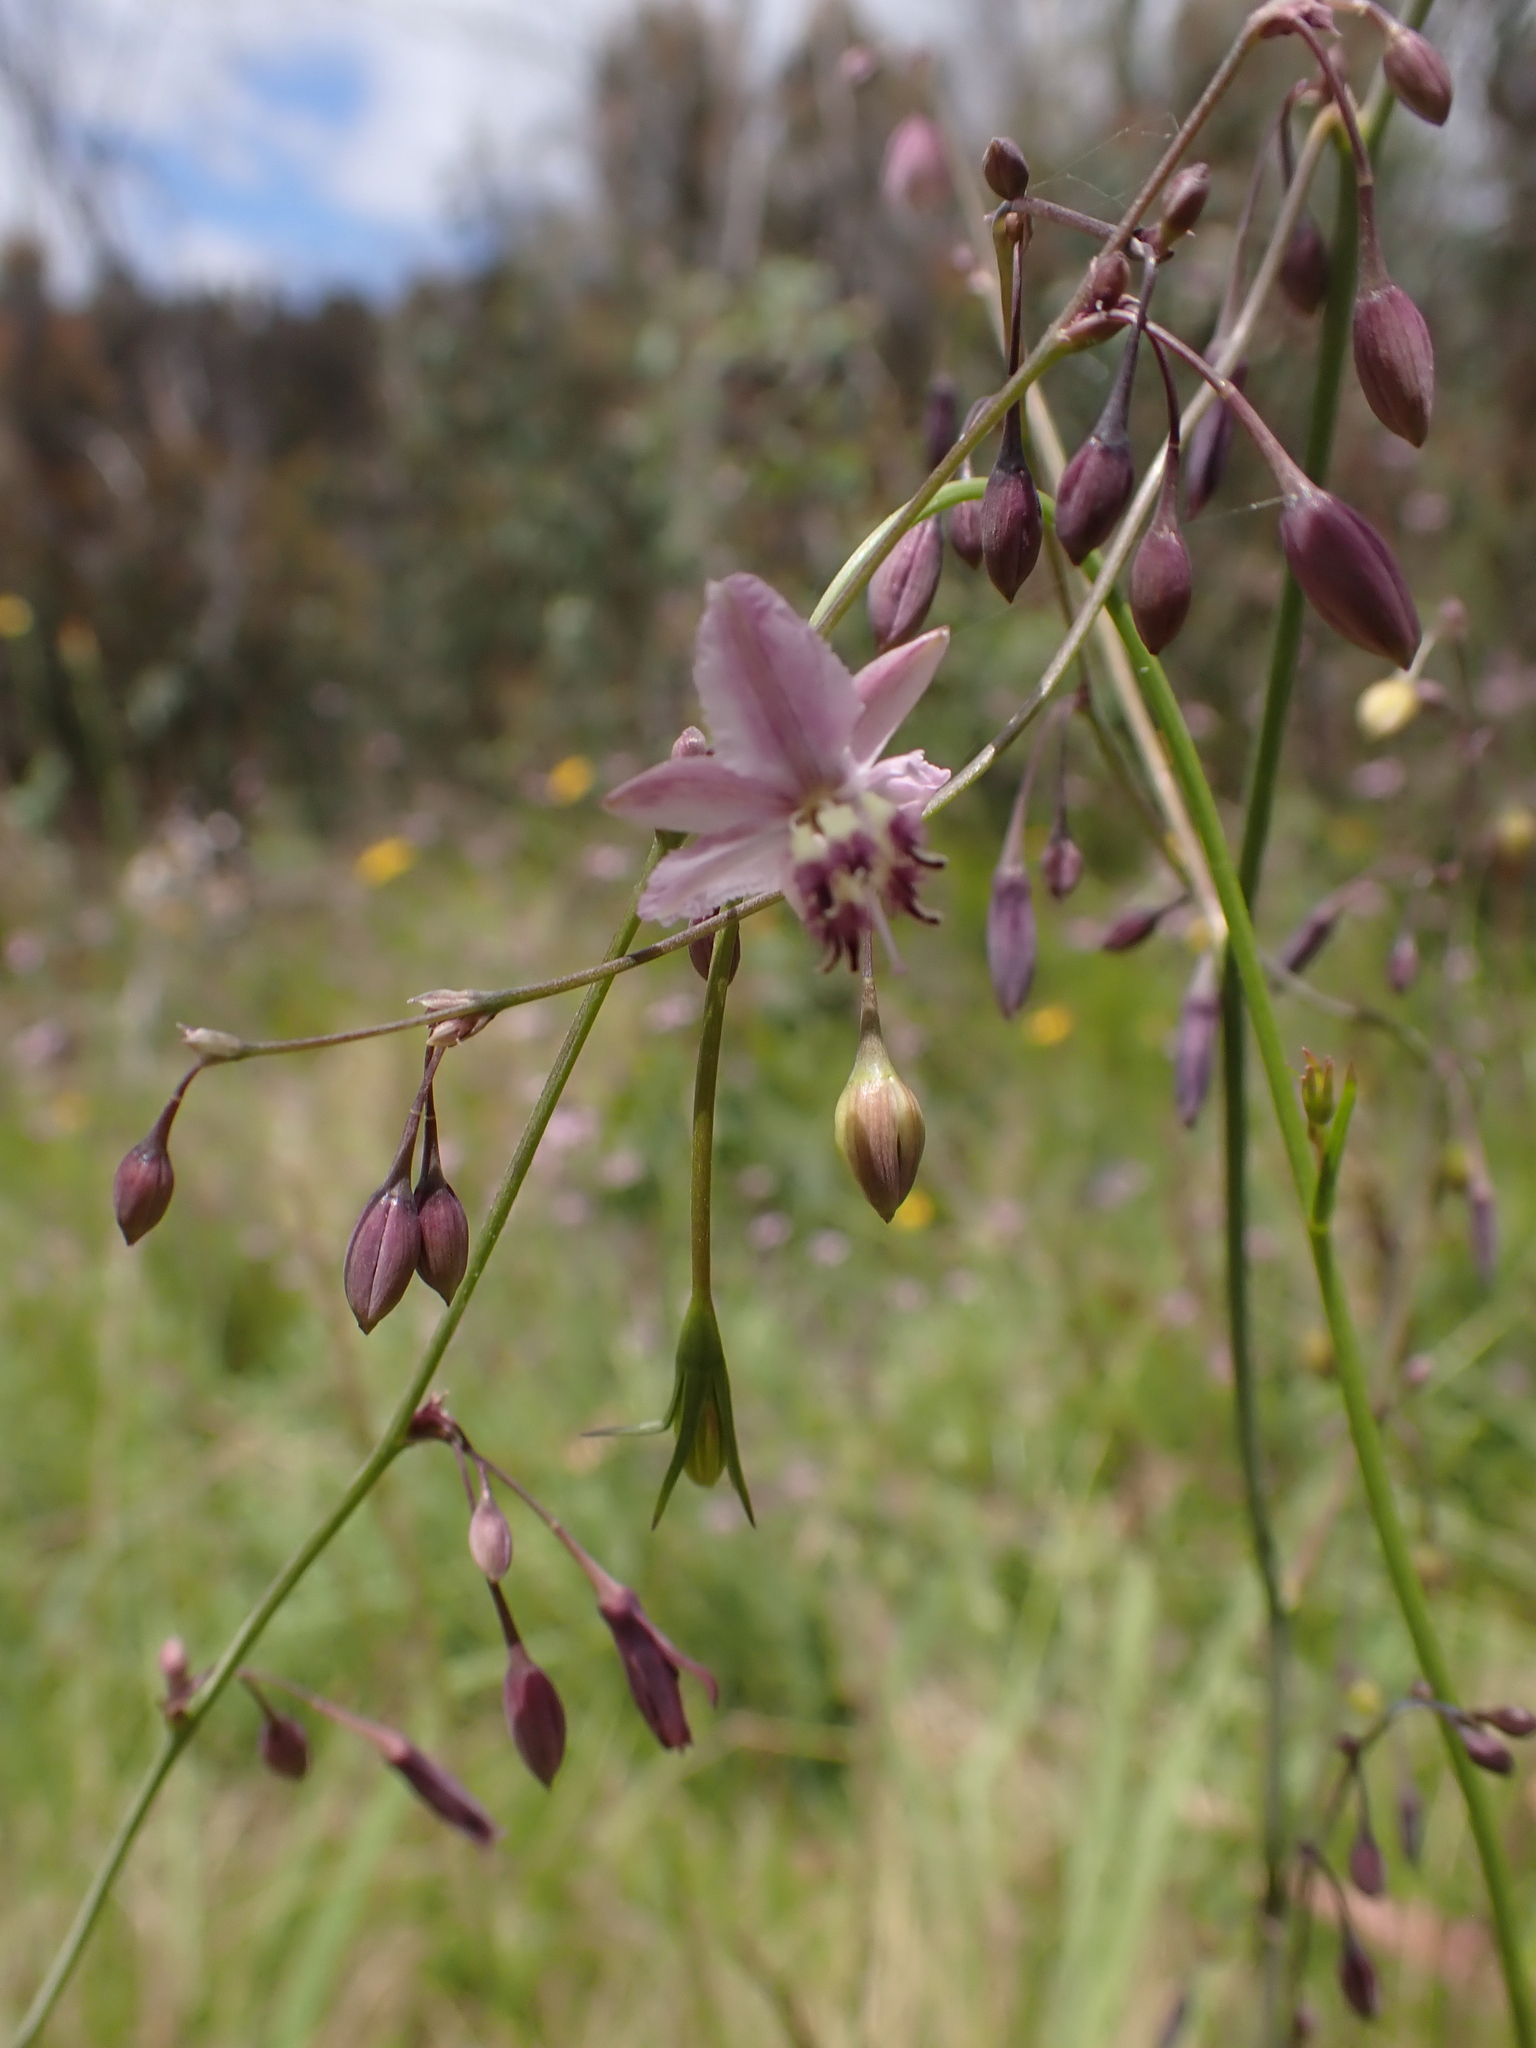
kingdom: Plantae
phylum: Tracheophyta
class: Liliopsida
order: Asparagales
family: Asparagaceae
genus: Arthropodium
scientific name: Arthropodium milleflorum
